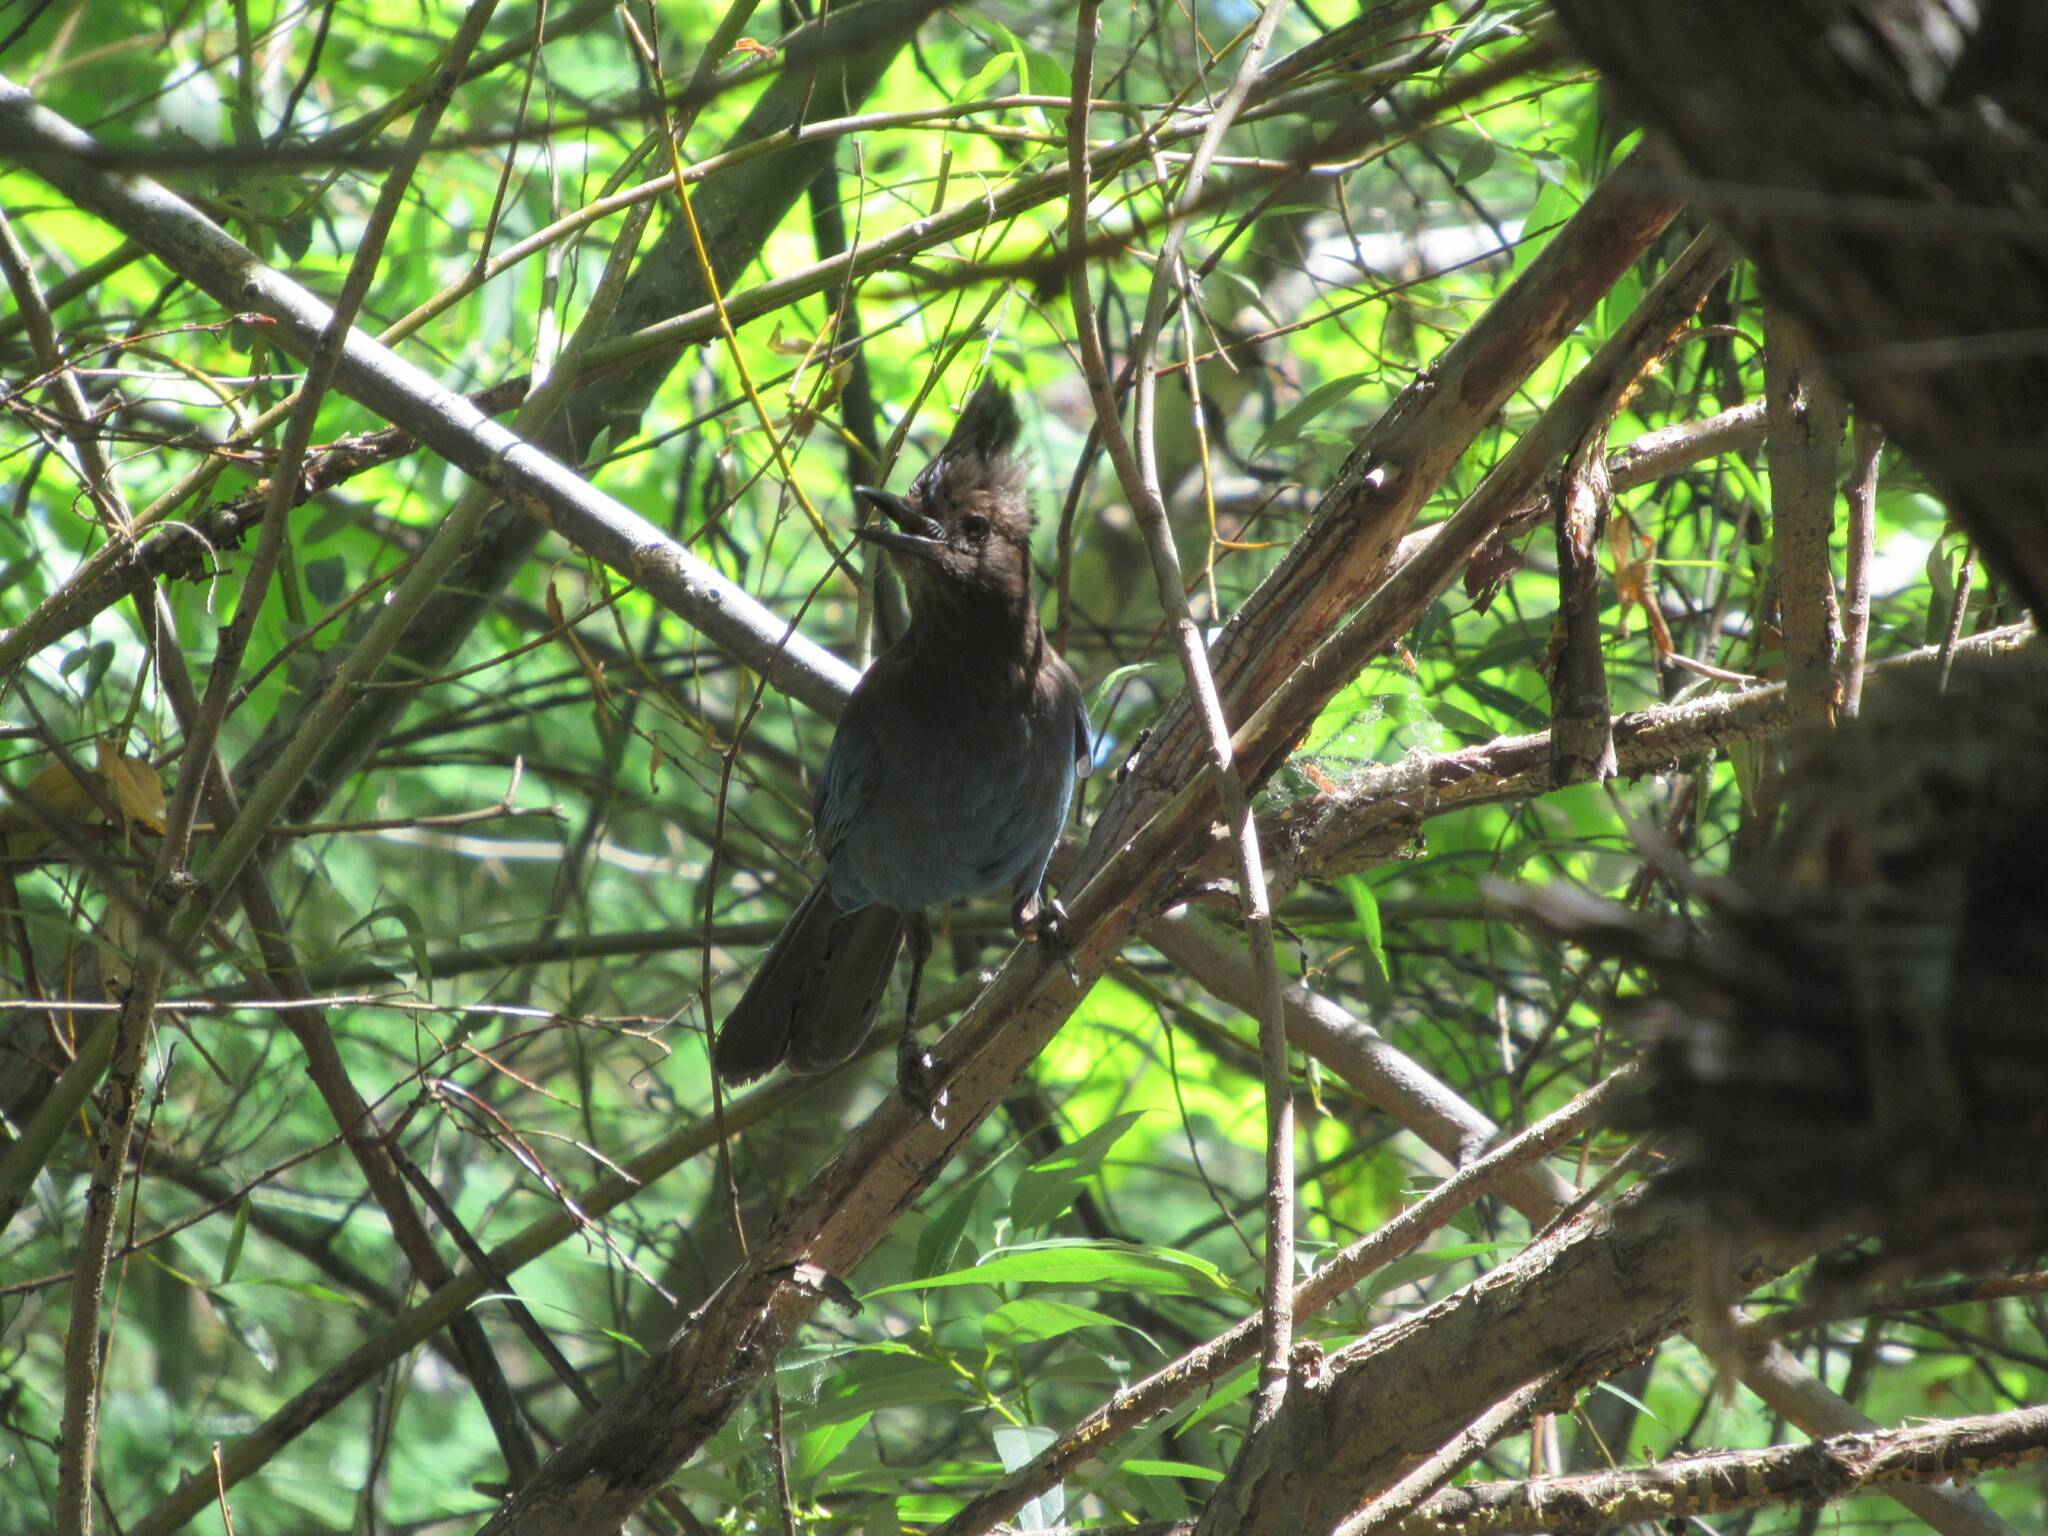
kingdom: Animalia
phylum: Chordata
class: Aves
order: Passeriformes
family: Corvidae
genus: Cyanocitta
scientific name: Cyanocitta stelleri
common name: Steller's jay
